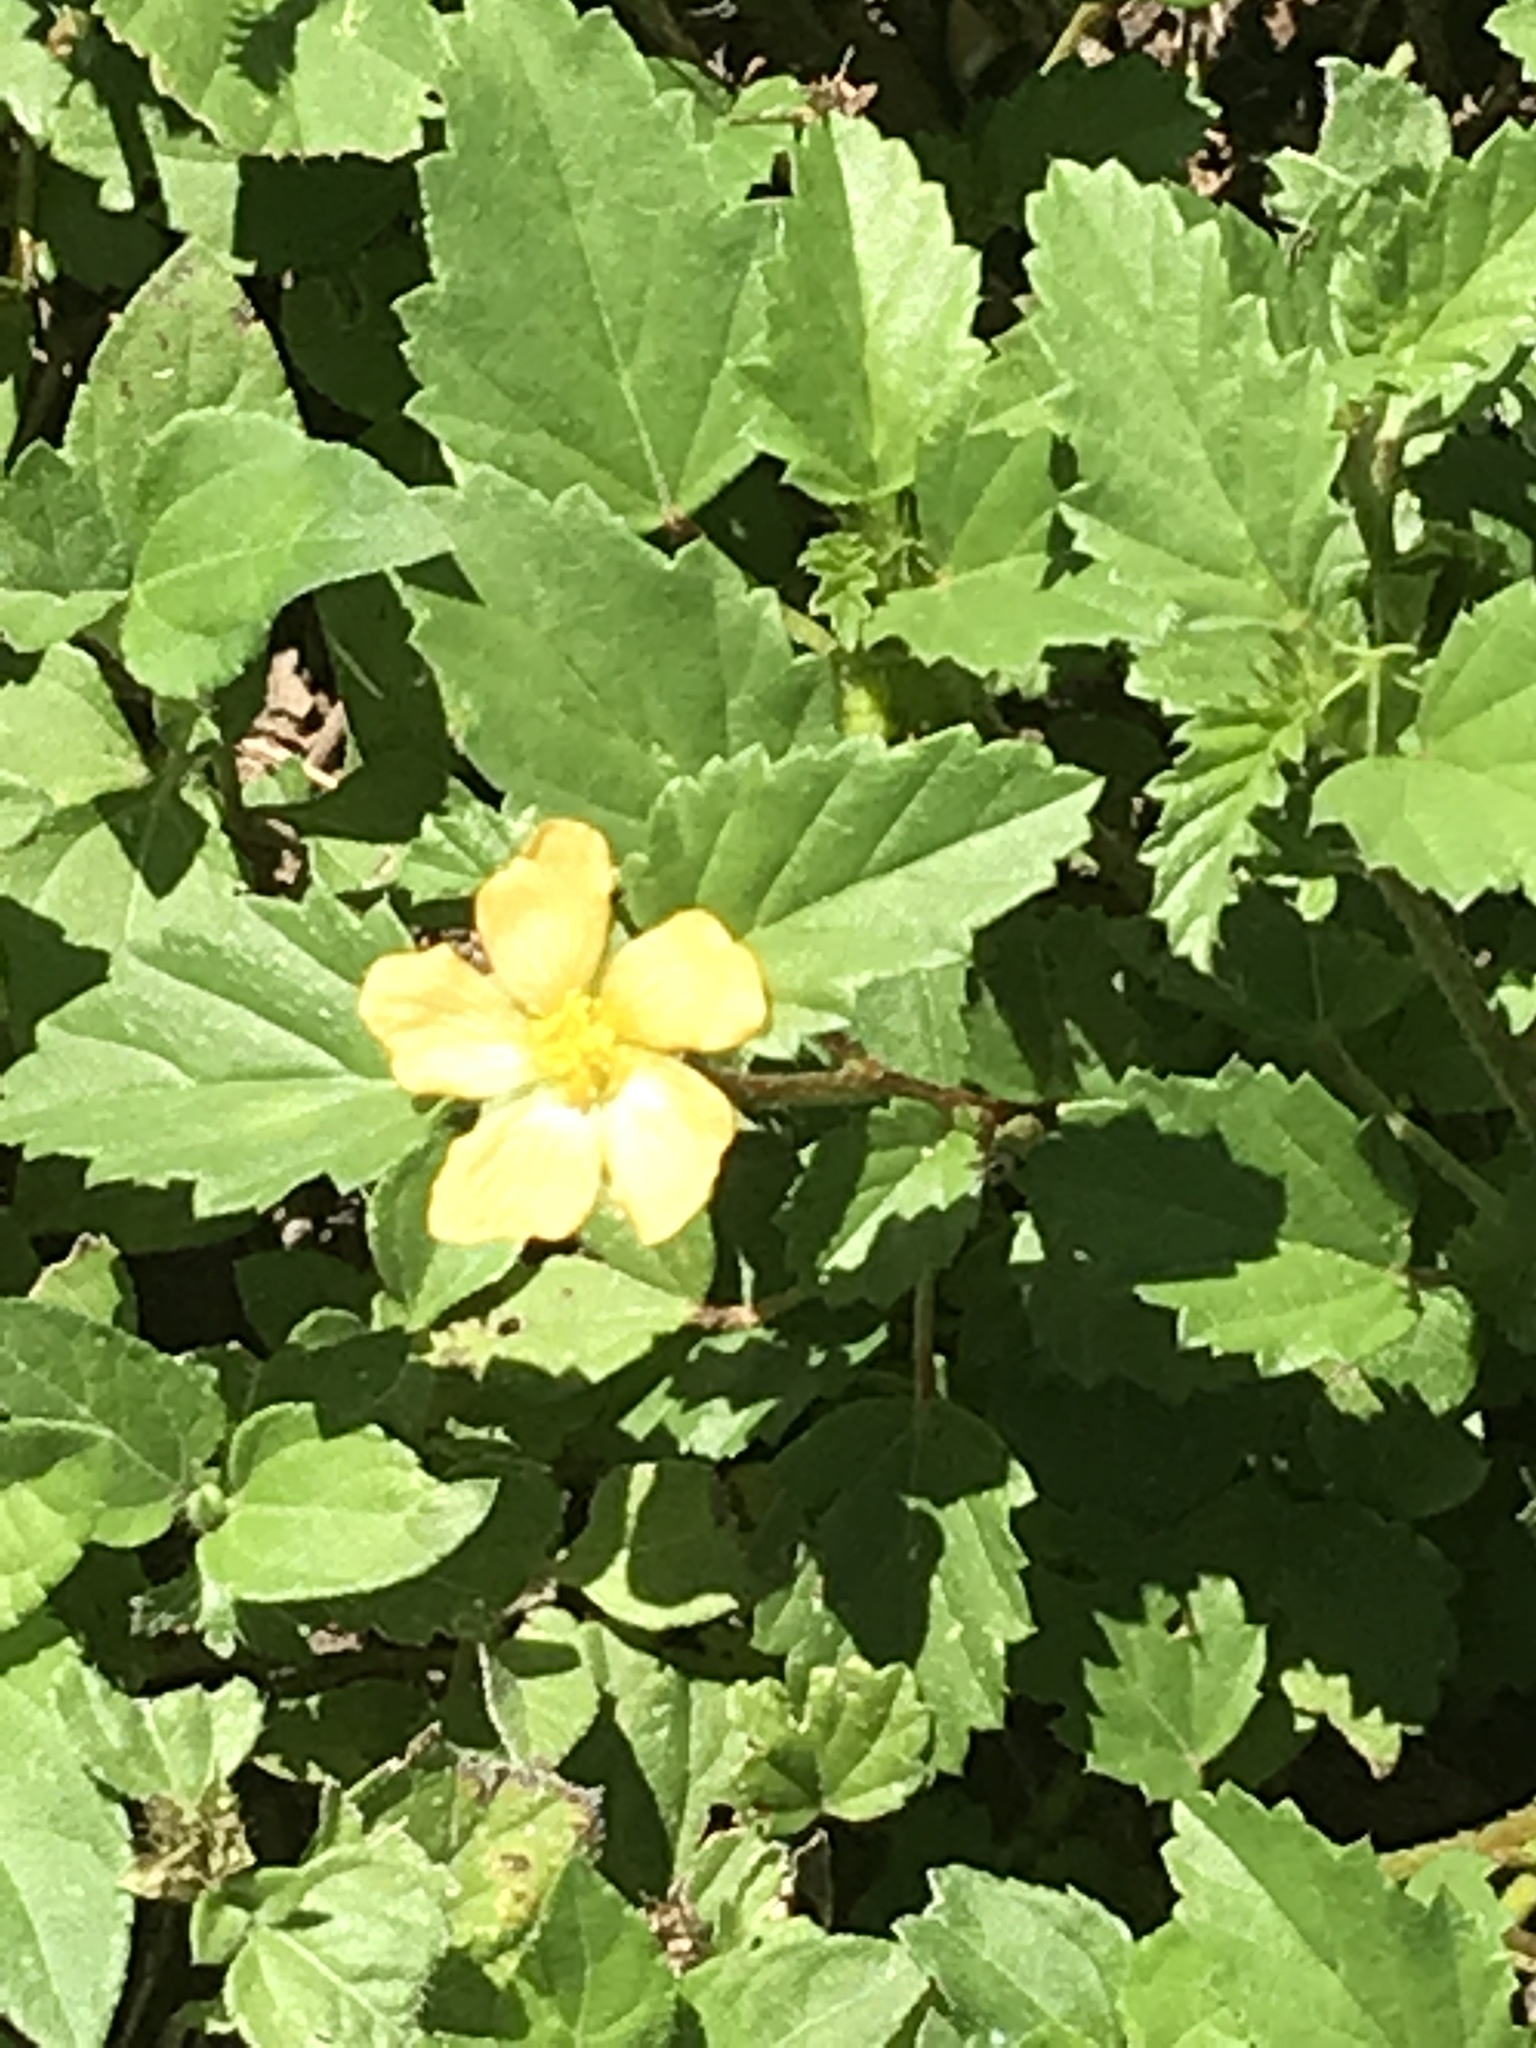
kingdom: Plantae
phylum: Tracheophyta
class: Magnoliopsida
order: Malvales
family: Malvaceae
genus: Malvastrum
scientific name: Malvastrum coromandelianum
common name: Threelobe false mallow
